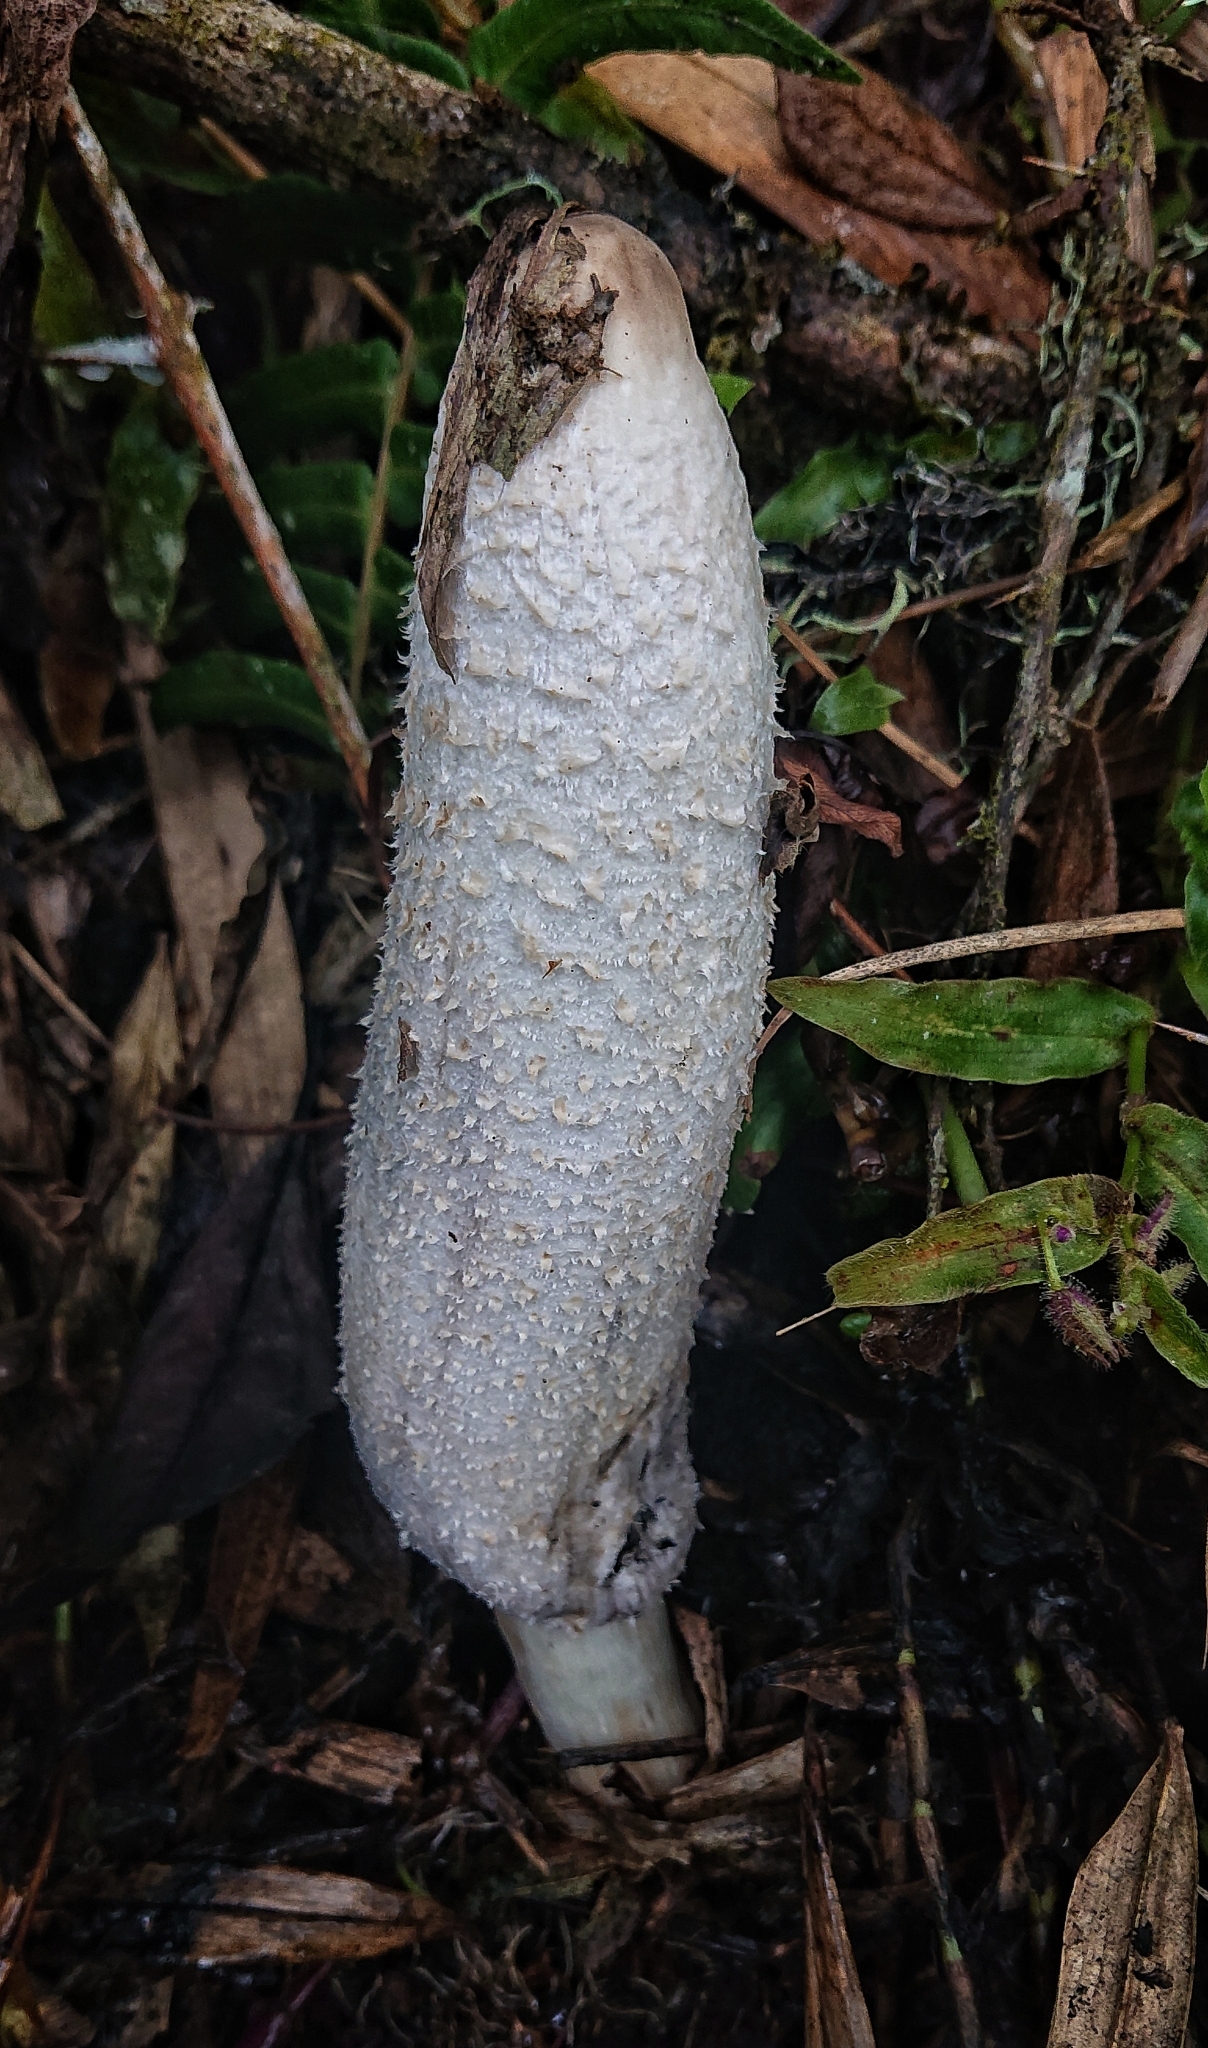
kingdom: Fungi
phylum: Basidiomycota
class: Agaricomycetes
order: Agaricales
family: Agaricaceae
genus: Coprinus
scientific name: Coprinus comatus
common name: Lawyer's wig
